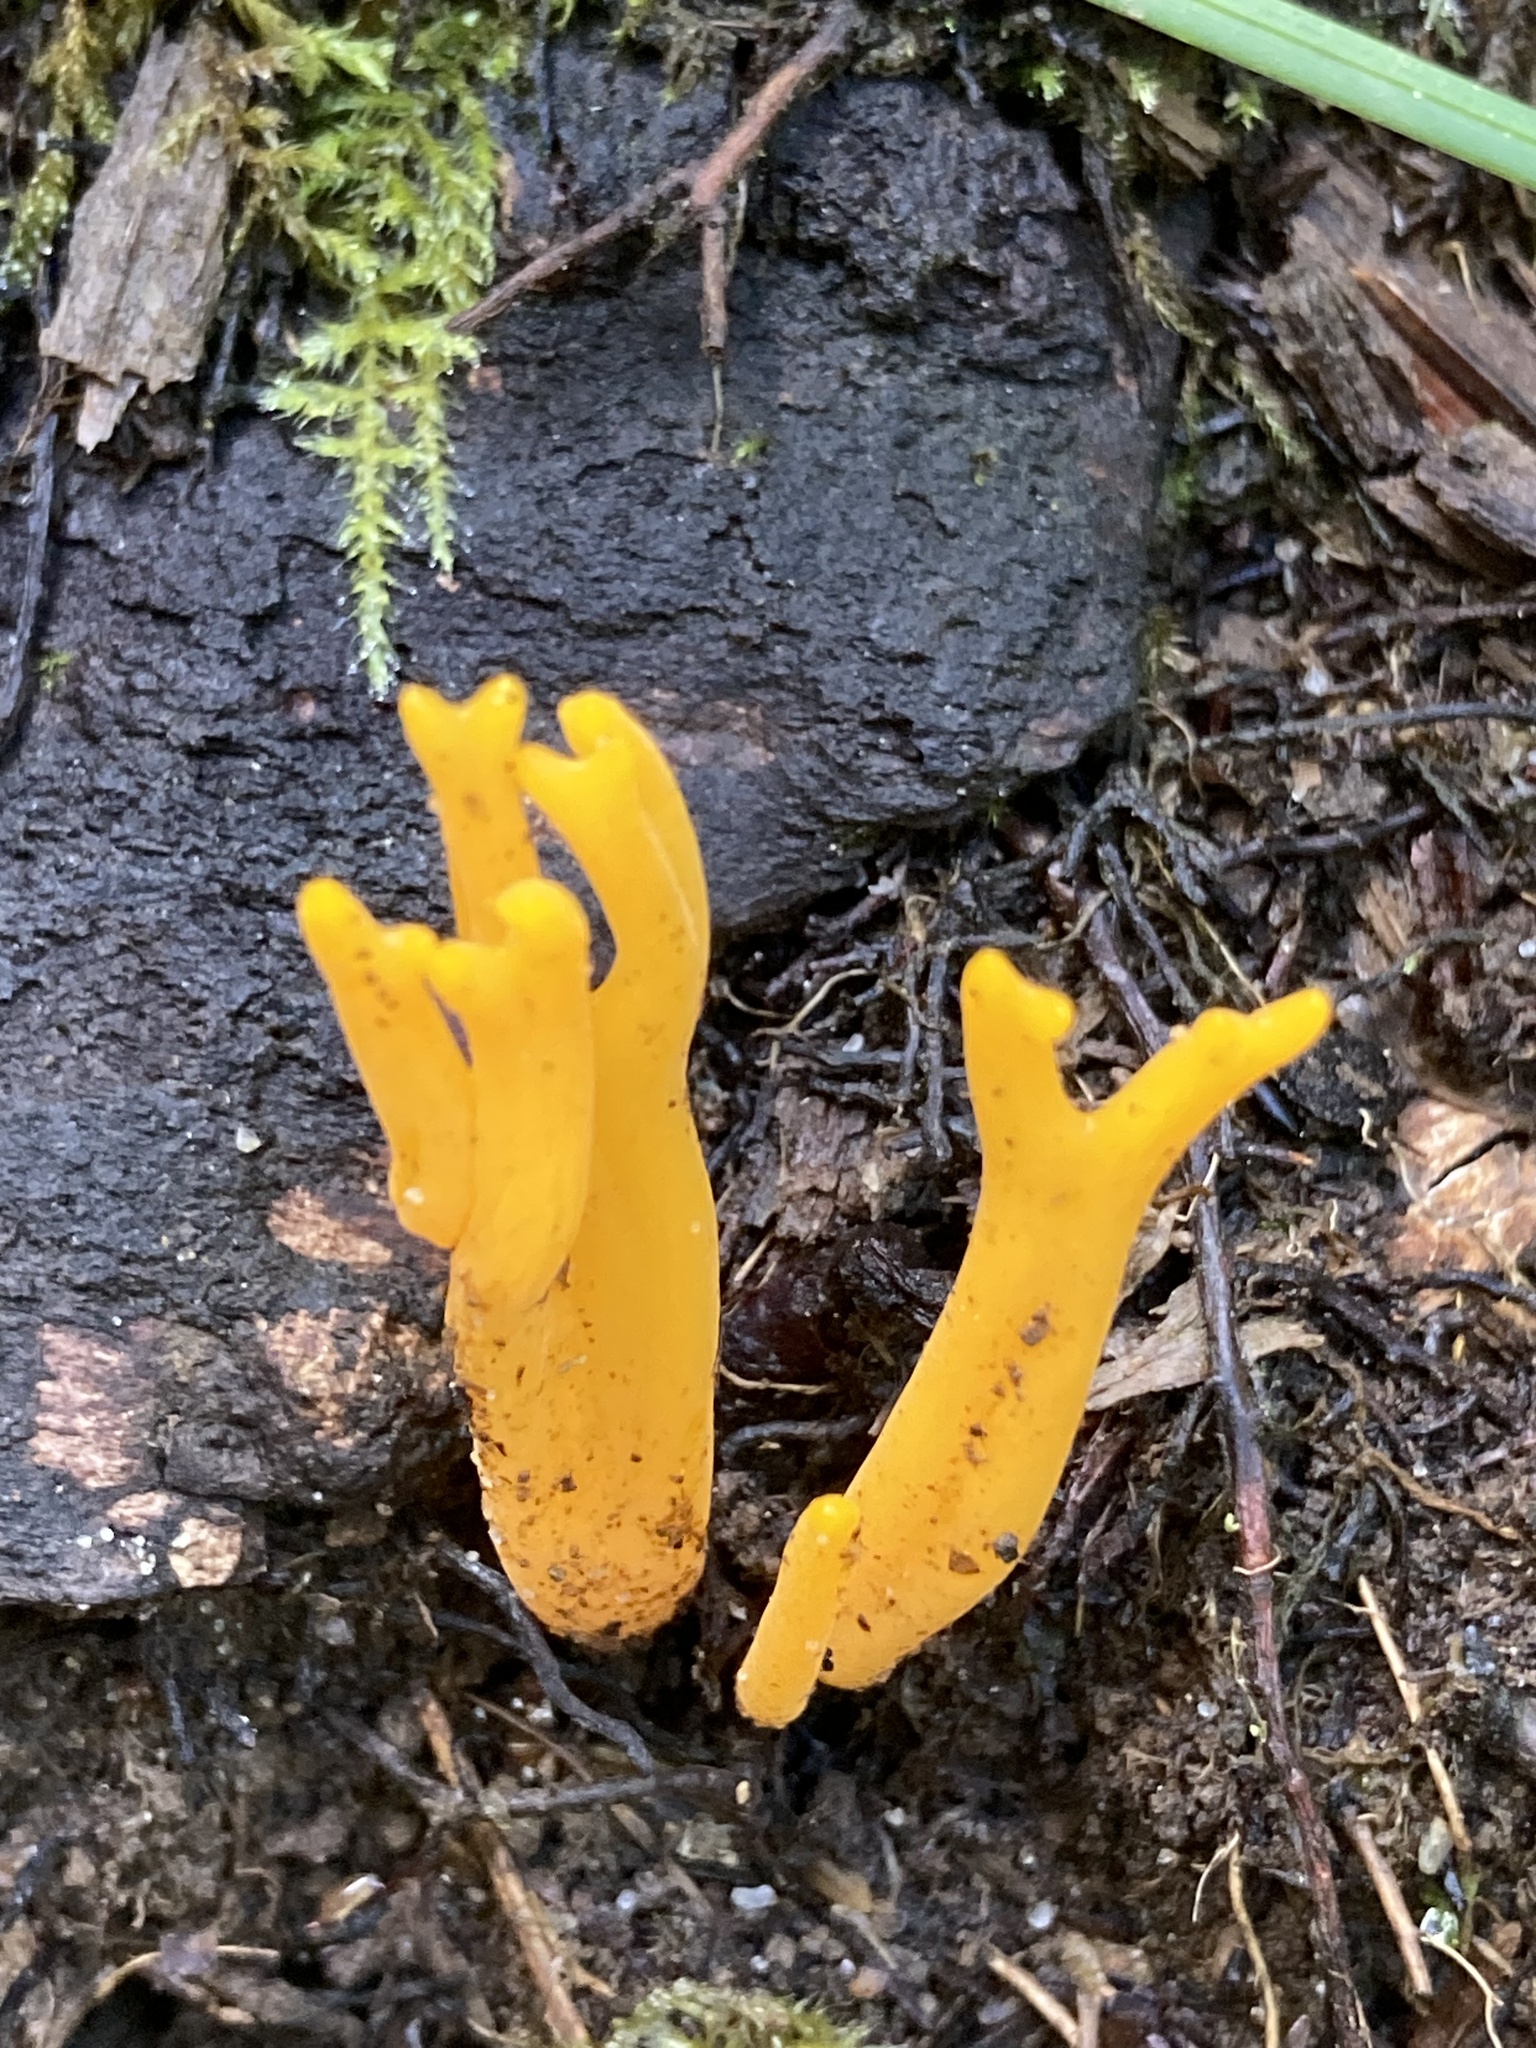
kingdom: Fungi
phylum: Basidiomycota
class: Dacrymycetes
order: Dacrymycetales
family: Dacrymycetaceae
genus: Calocera
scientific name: Calocera viscosa
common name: Yellow stagshorn
